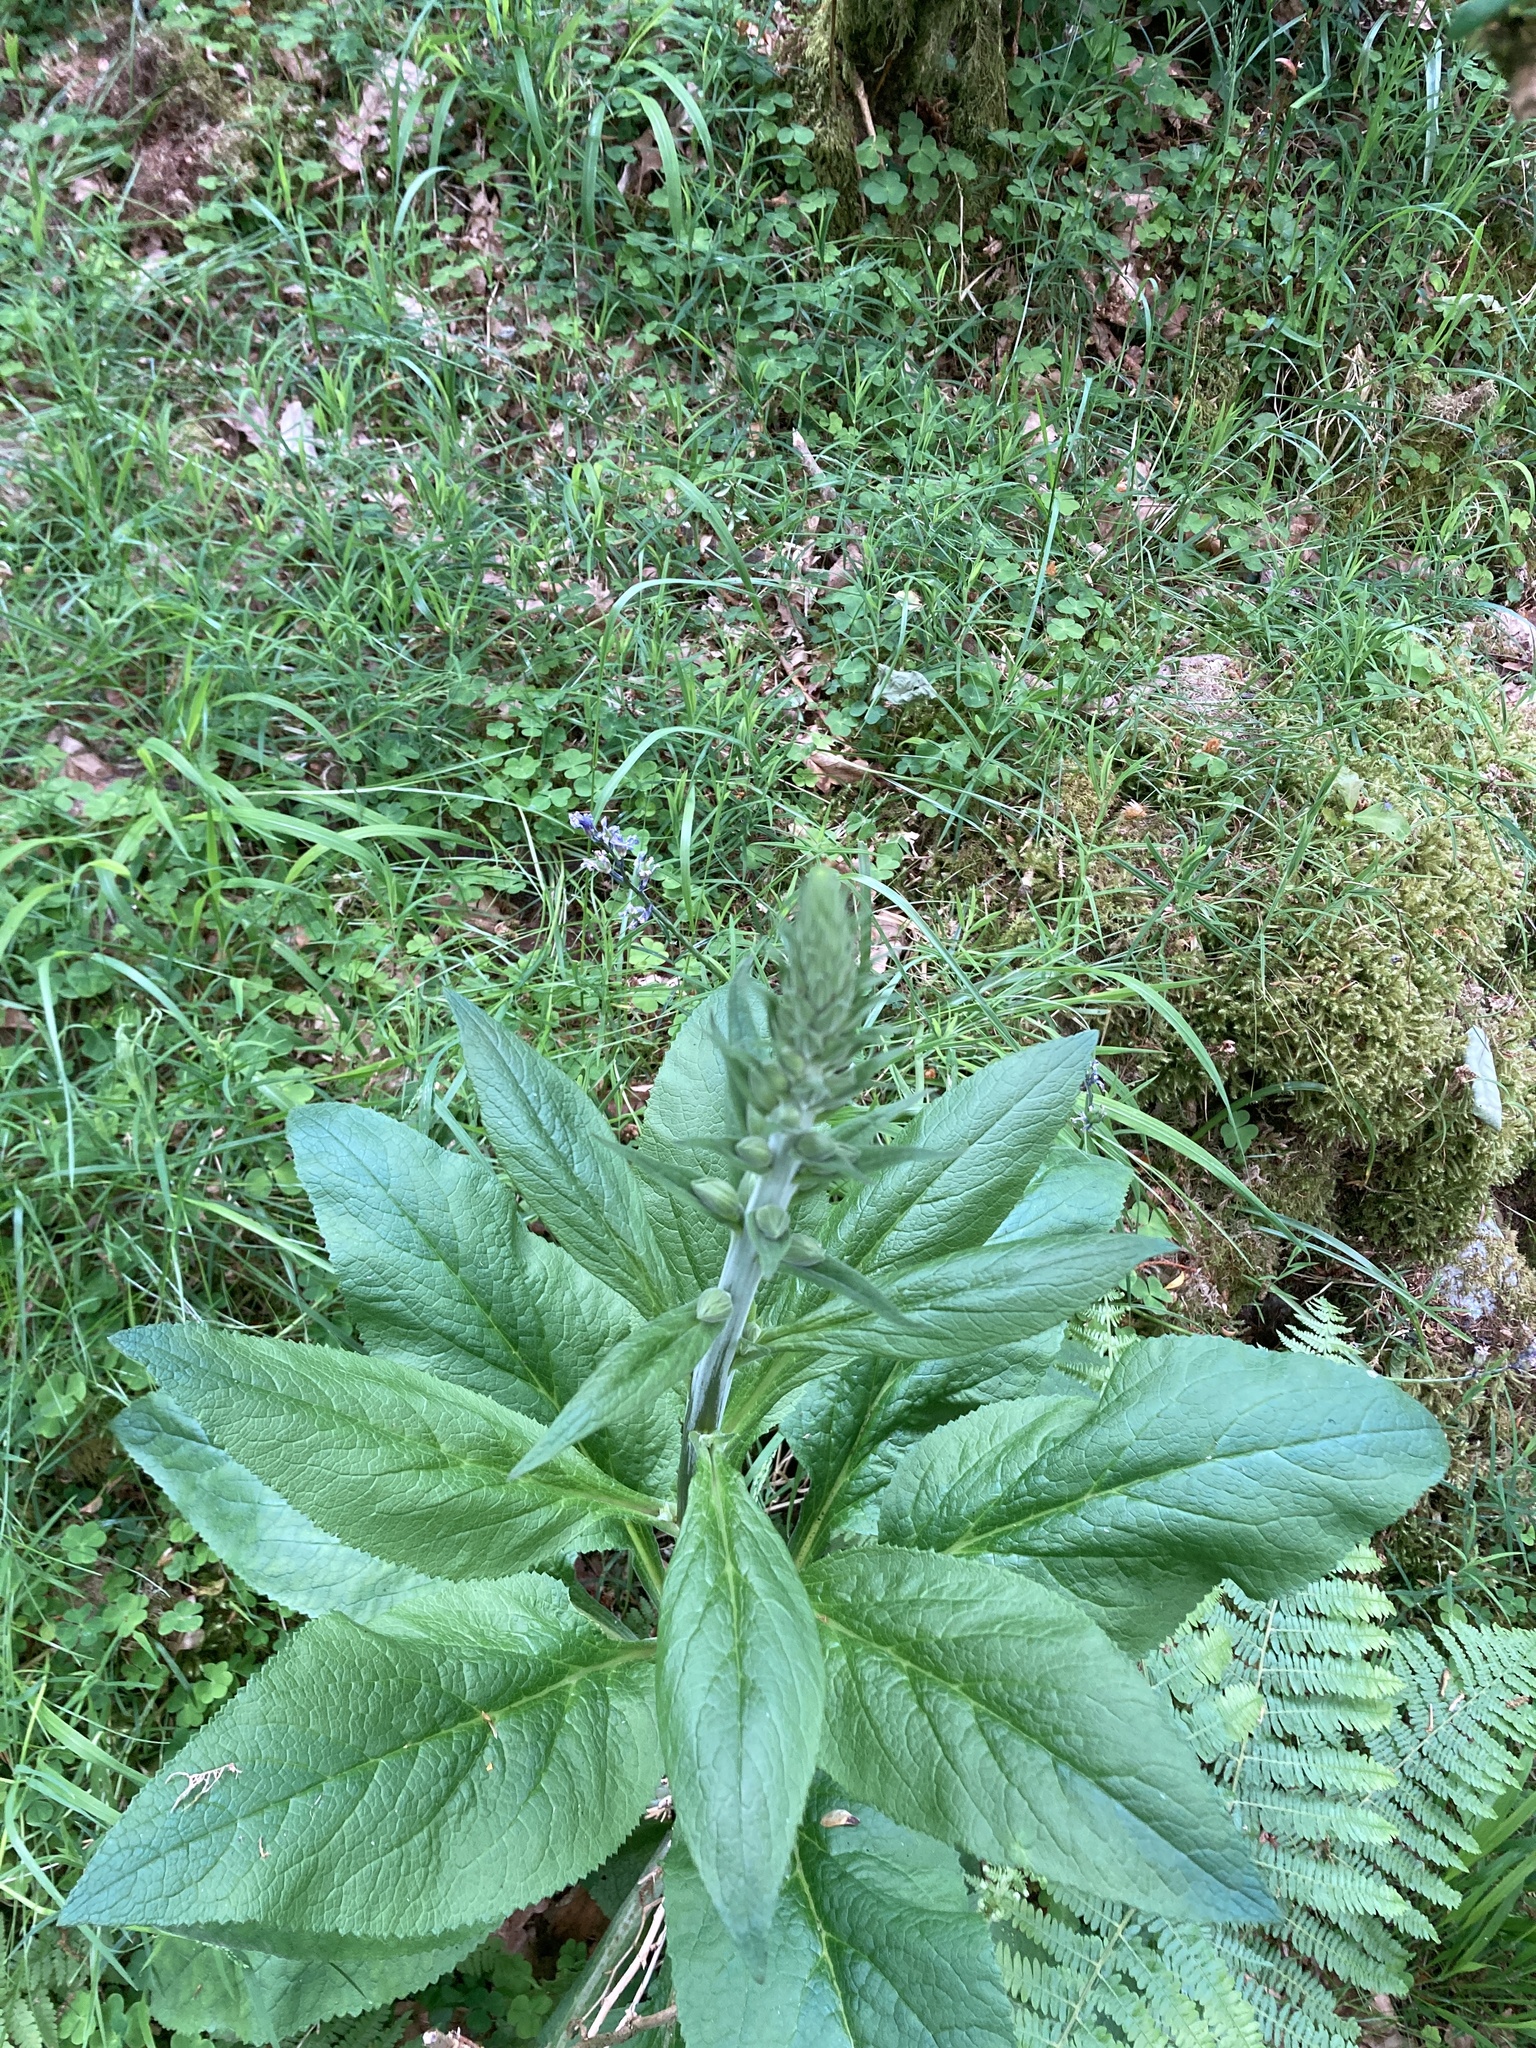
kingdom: Plantae
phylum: Tracheophyta
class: Magnoliopsida
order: Lamiales
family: Plantaginaceae
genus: Digitalis
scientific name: Digitalis purpurea
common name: Foxglove
